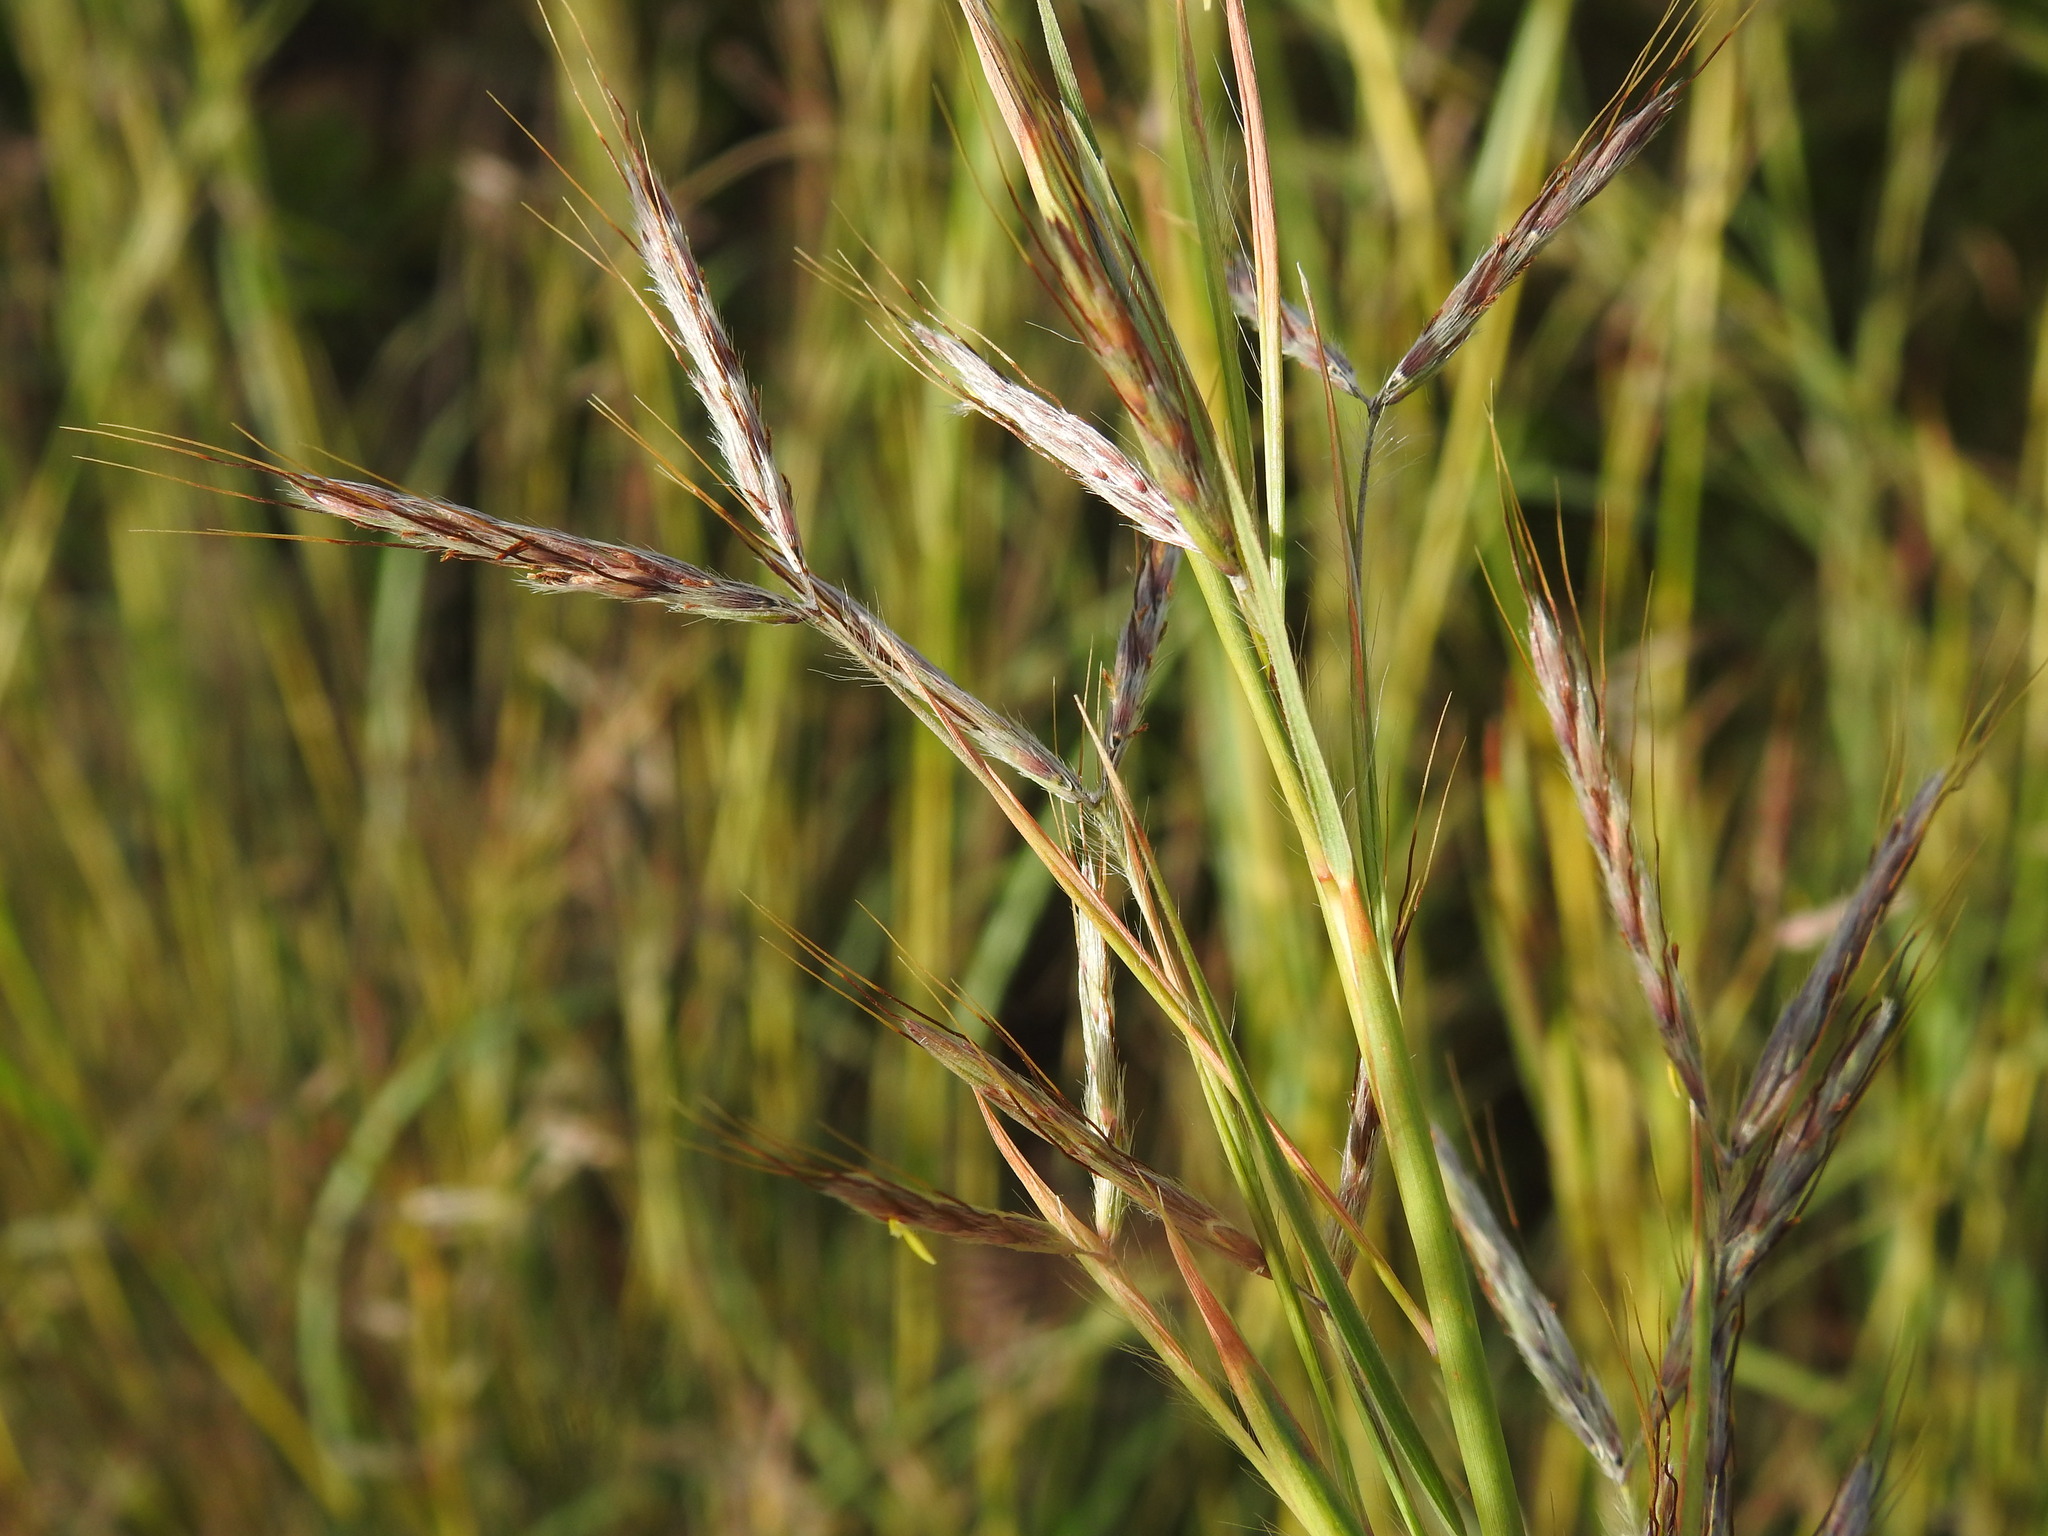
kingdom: Plantae
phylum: Tracheophyta
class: Liliopsida
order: Poales
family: Poaceae
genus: Hyparrhenia
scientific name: Hyparrhenia hirta
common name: Thatching grass
